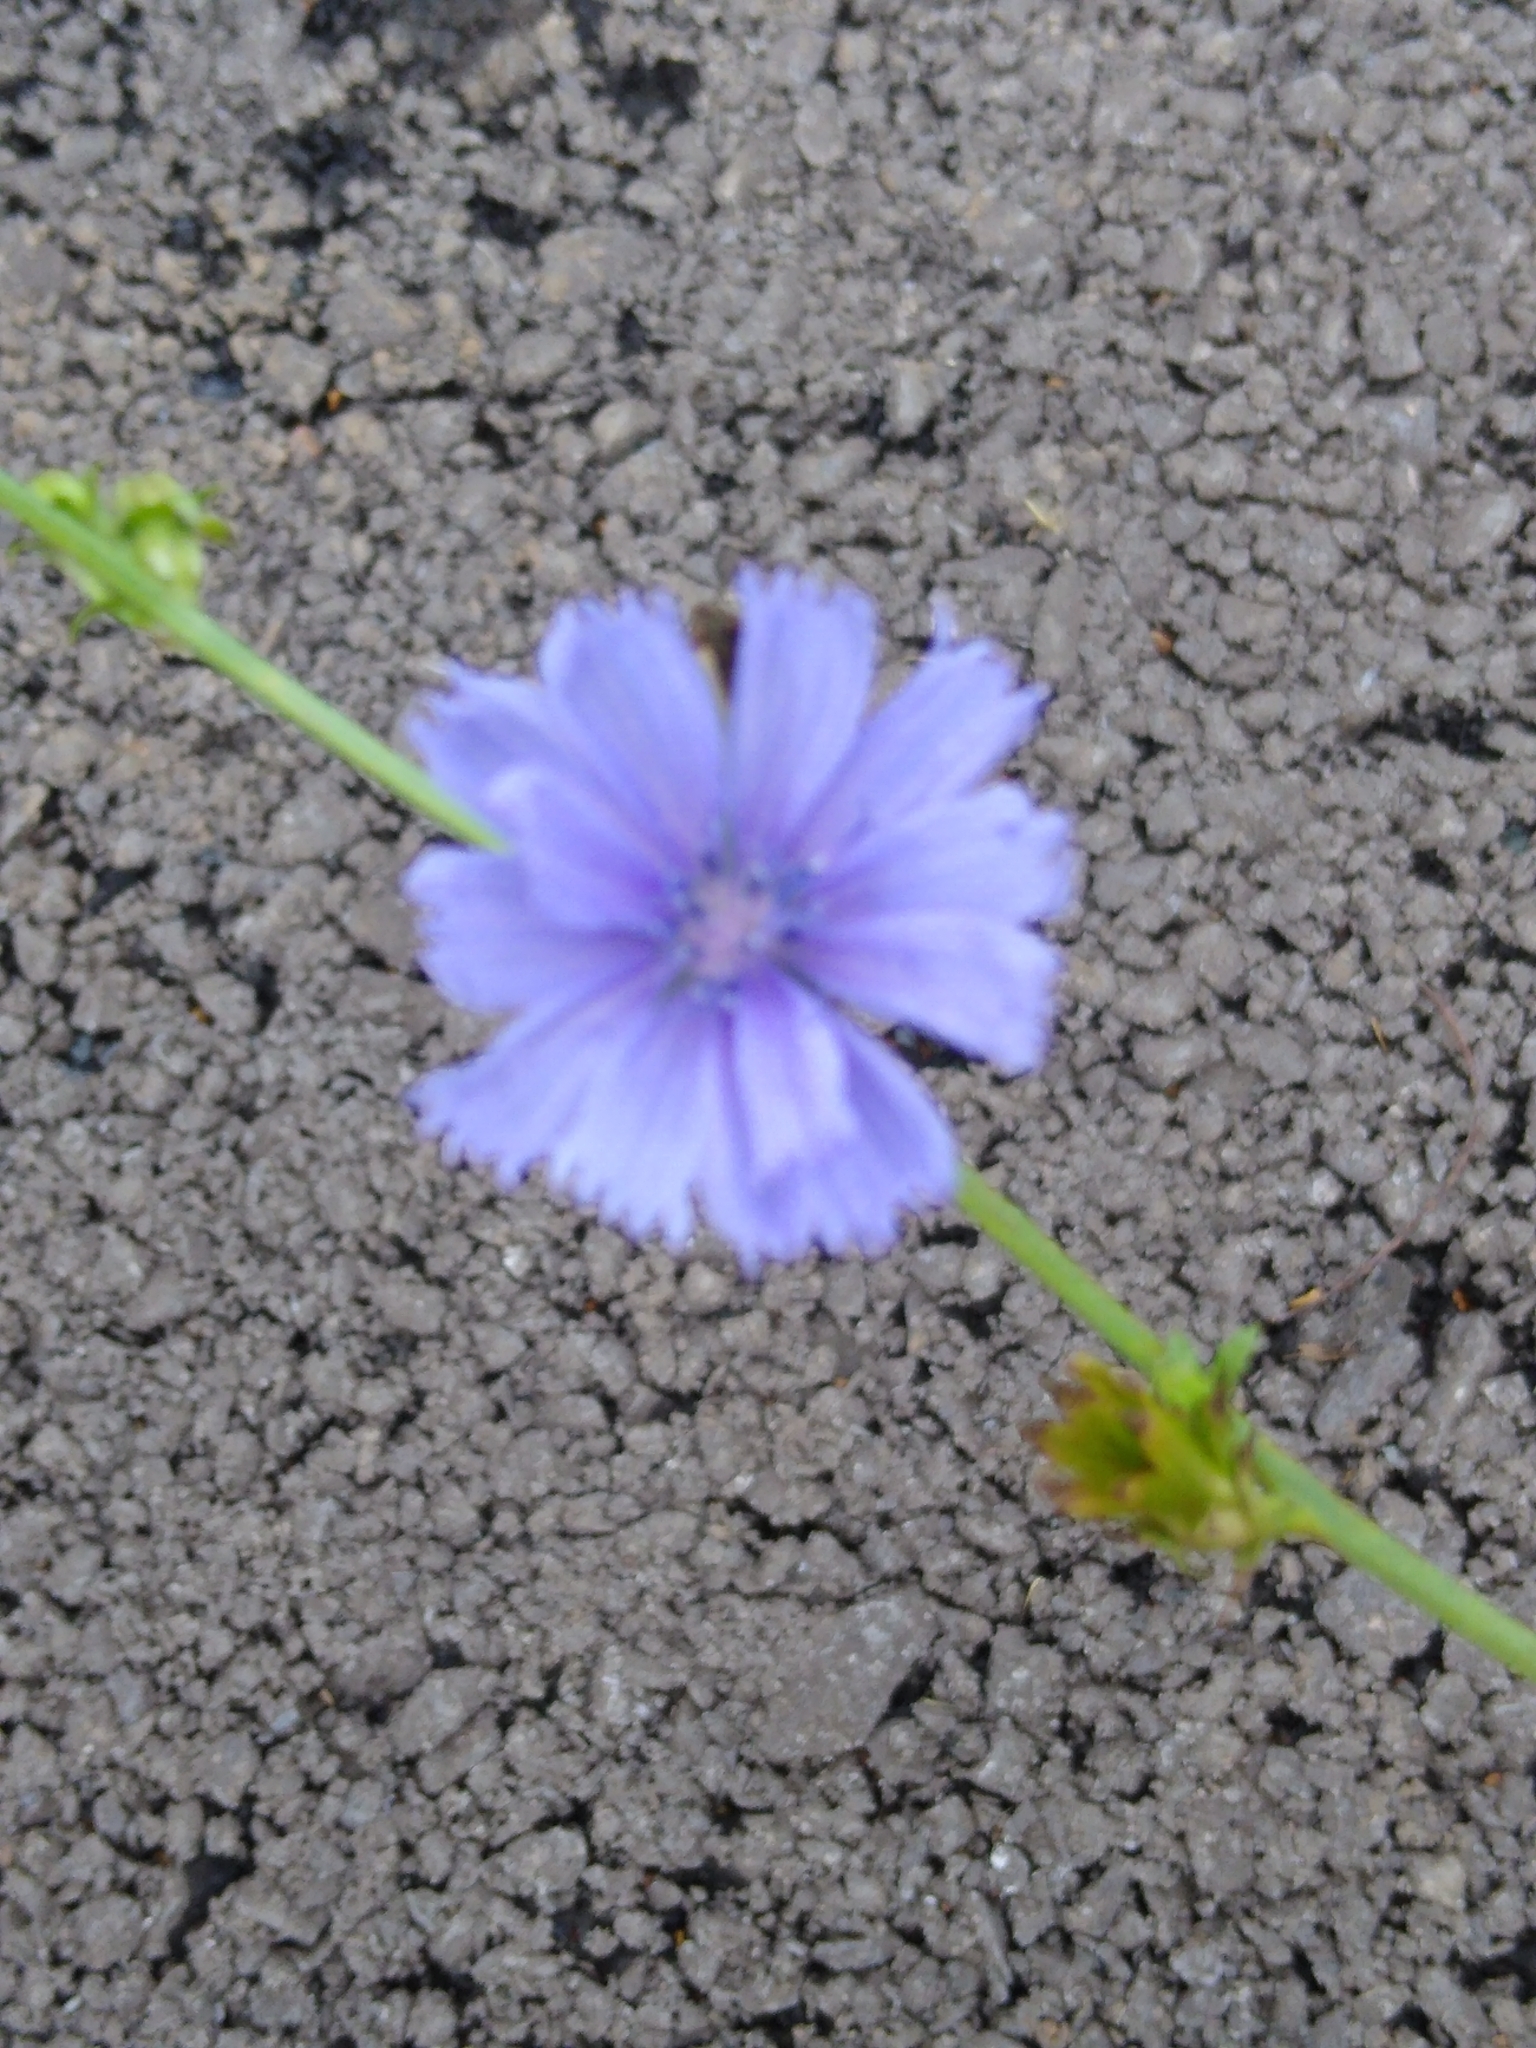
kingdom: Plantae
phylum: Tracheophyta
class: Magnoliopsida
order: Asterales
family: Asteraceae
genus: Cichorium
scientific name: Cichorium intybus
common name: Chicory
